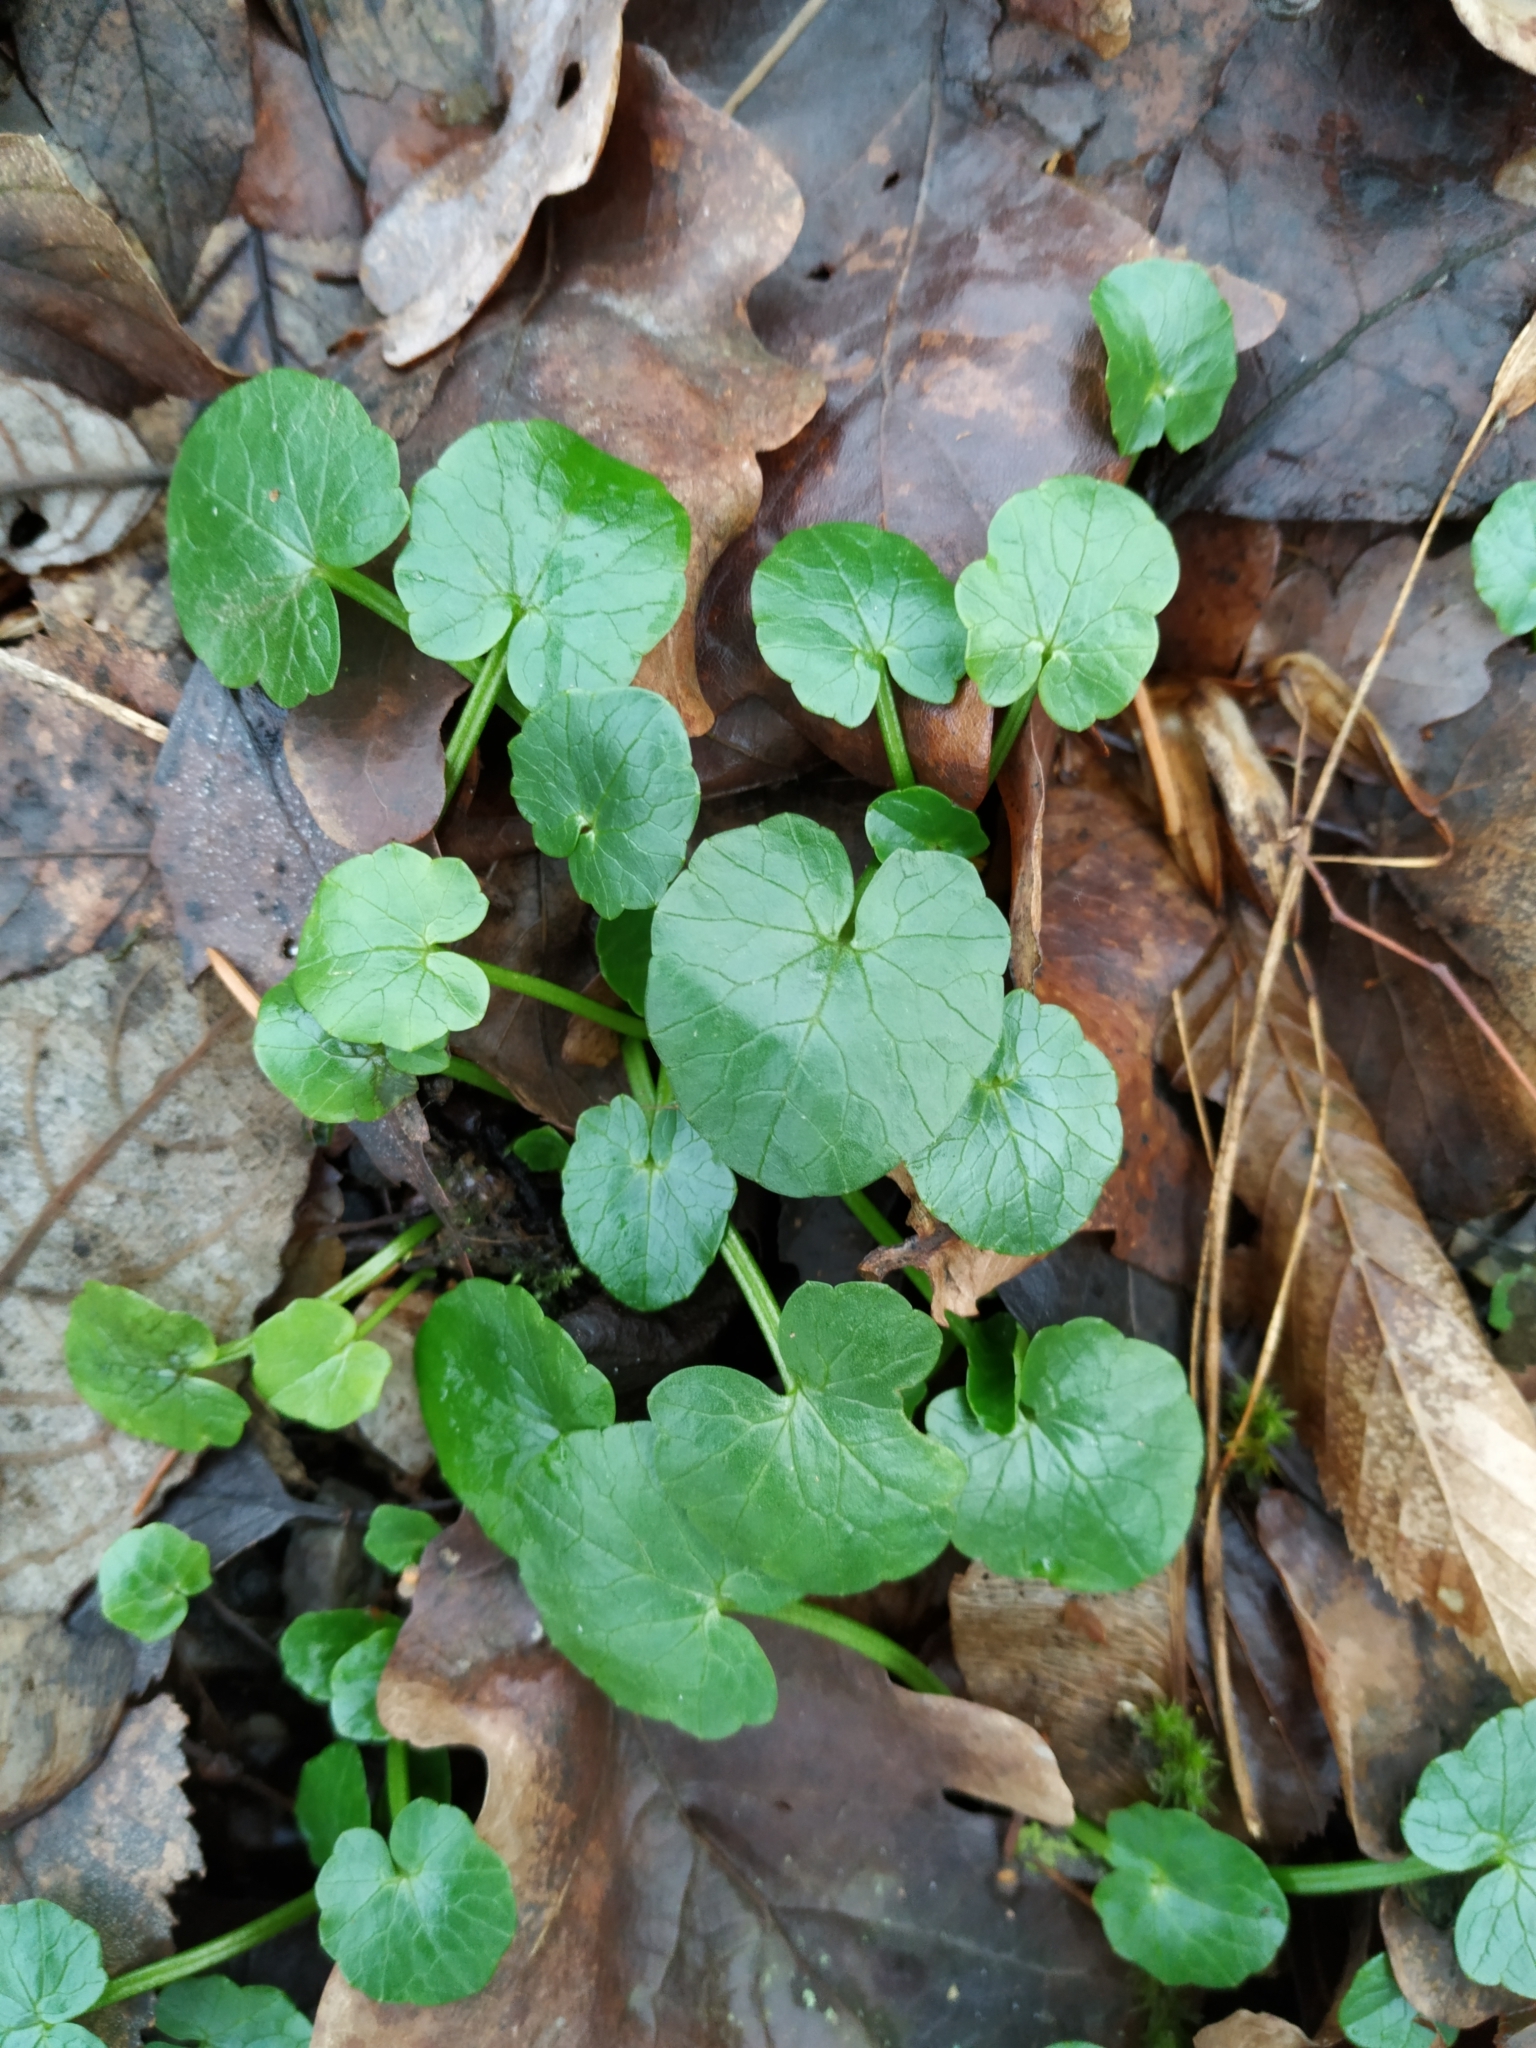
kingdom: Plantae
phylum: Tracheophyta
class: Magnoliopsida
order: Ranunculales
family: Ranunculaceae
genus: Ficaria
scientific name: Ficaria verna
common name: Lesser celandine
